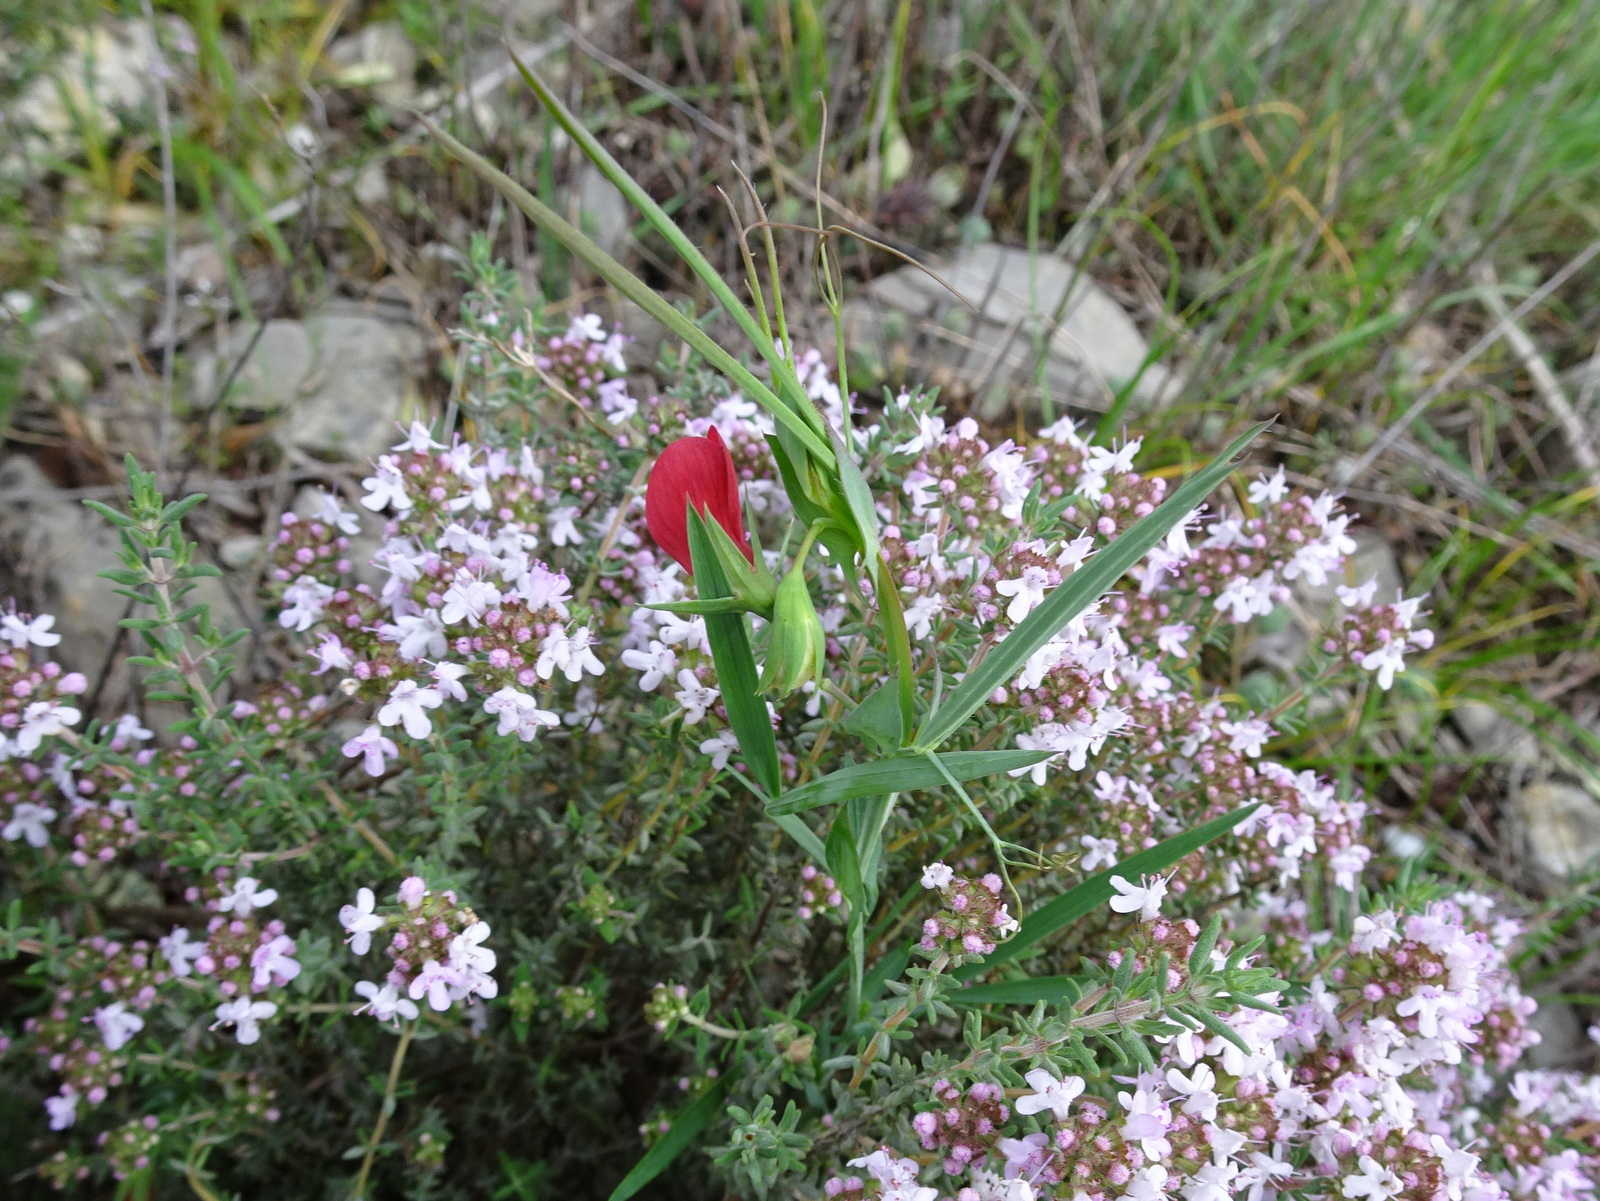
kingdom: Plantae
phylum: Tracheophyta
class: Magnoliopsida
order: Fabales
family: Fabaceae
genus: Lathyrus
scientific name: Lathyrus cicera
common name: Red vetchling
